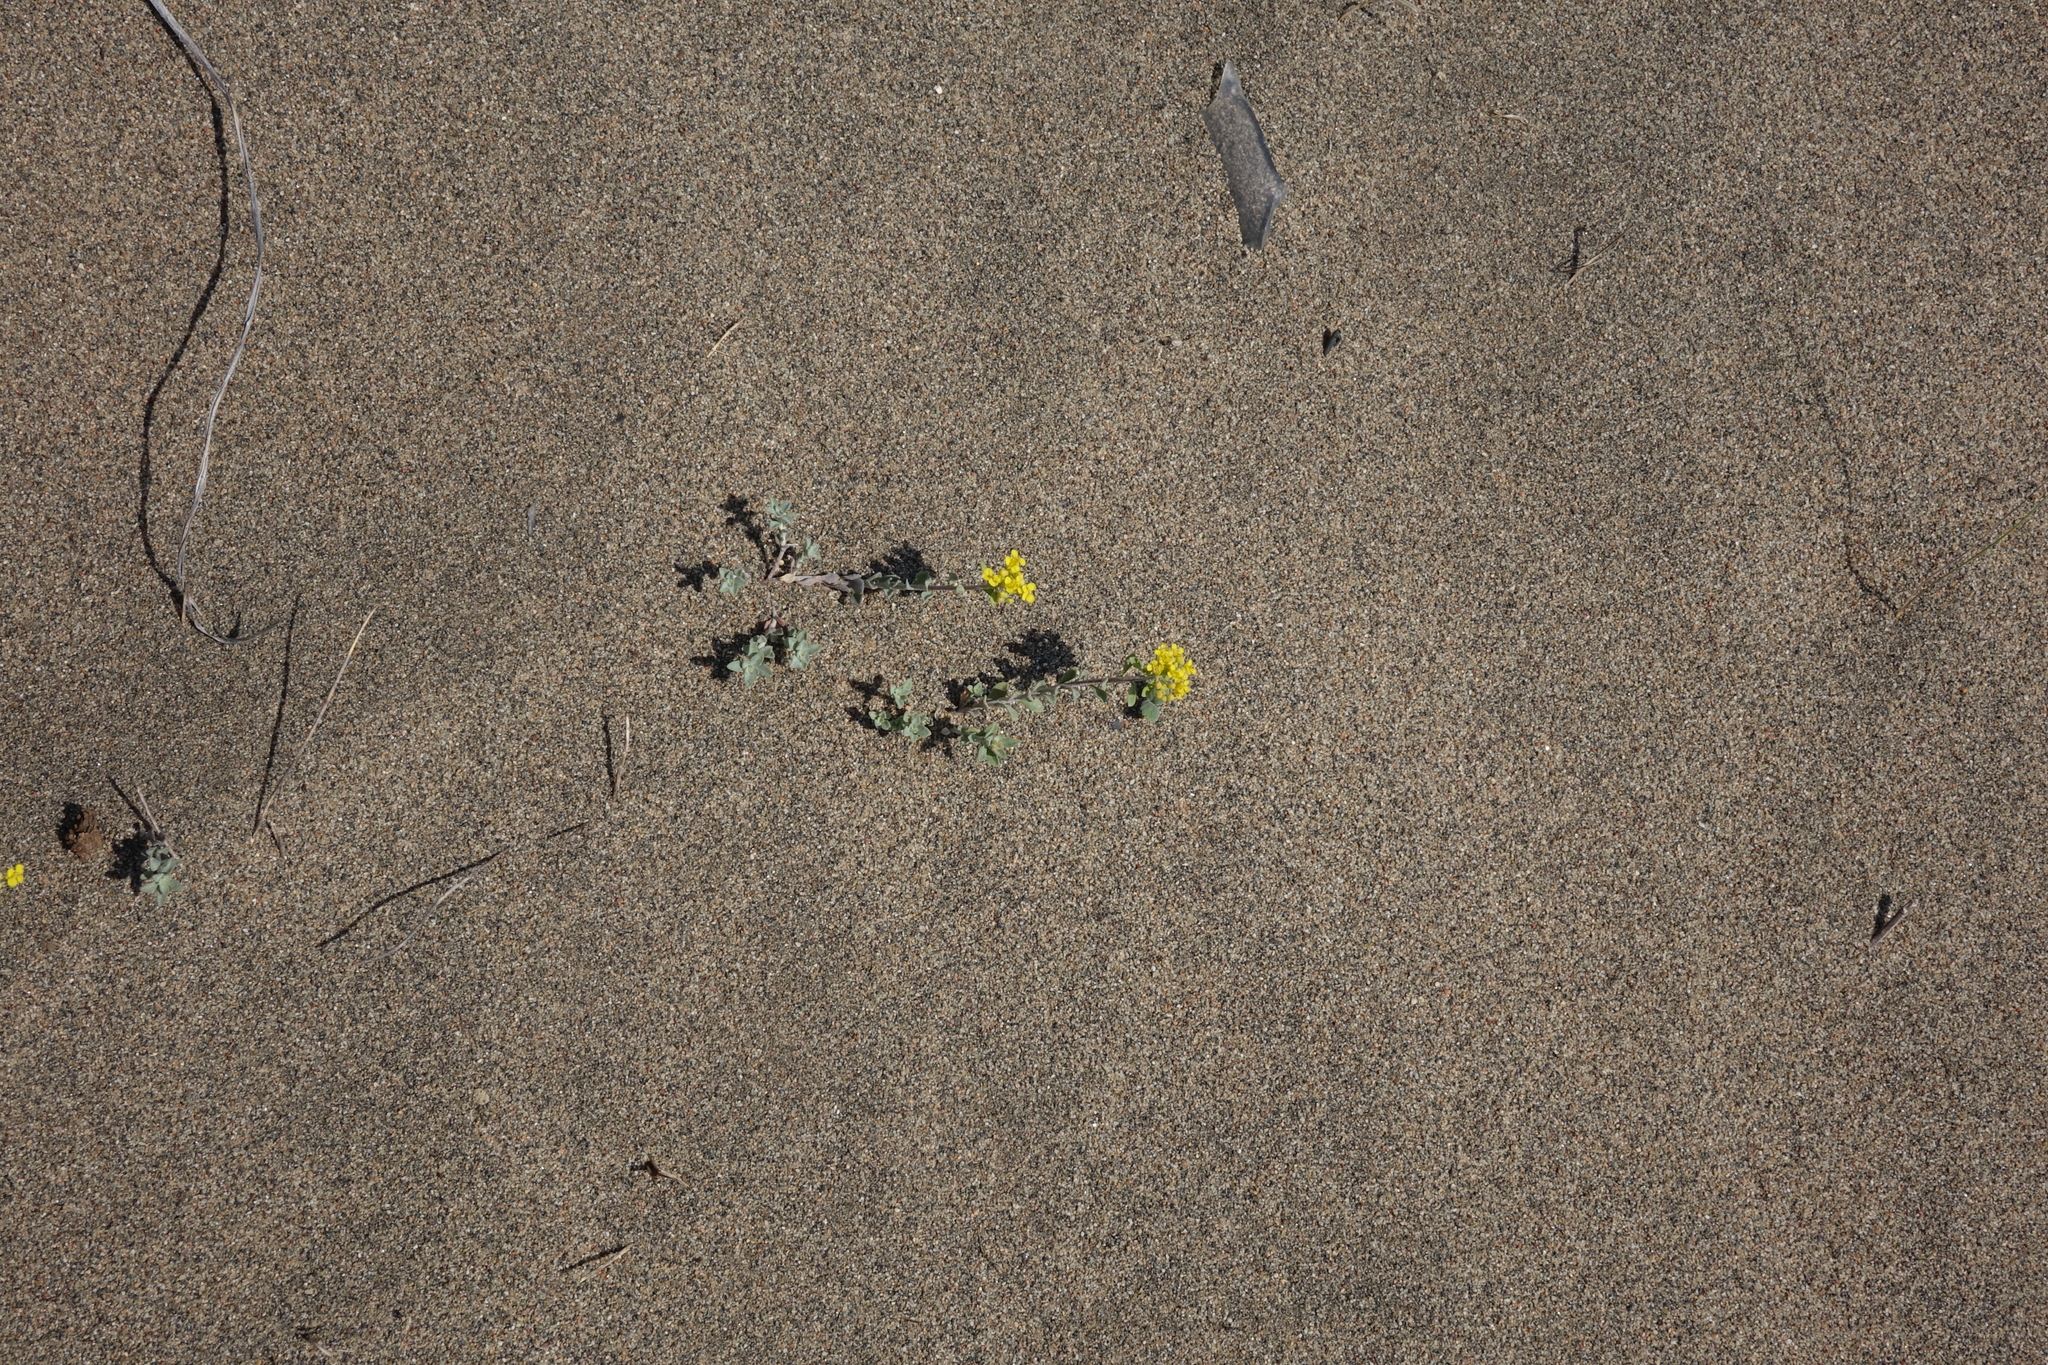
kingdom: Plantae
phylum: Tracheophyta
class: Magnoliopsida
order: Brassicales
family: Brassicaceae
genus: Odontarrhena
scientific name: Odontarrhena obovata
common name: American alyssum
